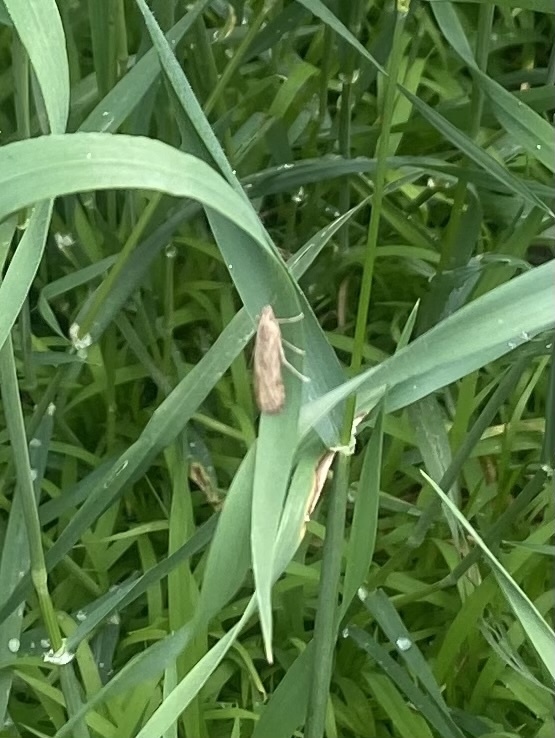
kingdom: Animalia
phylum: Arthropoda
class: Insecta
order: Lepidoptera
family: Crambidae
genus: Nomophila
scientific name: Nomophila noctuella
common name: Rush veneer
